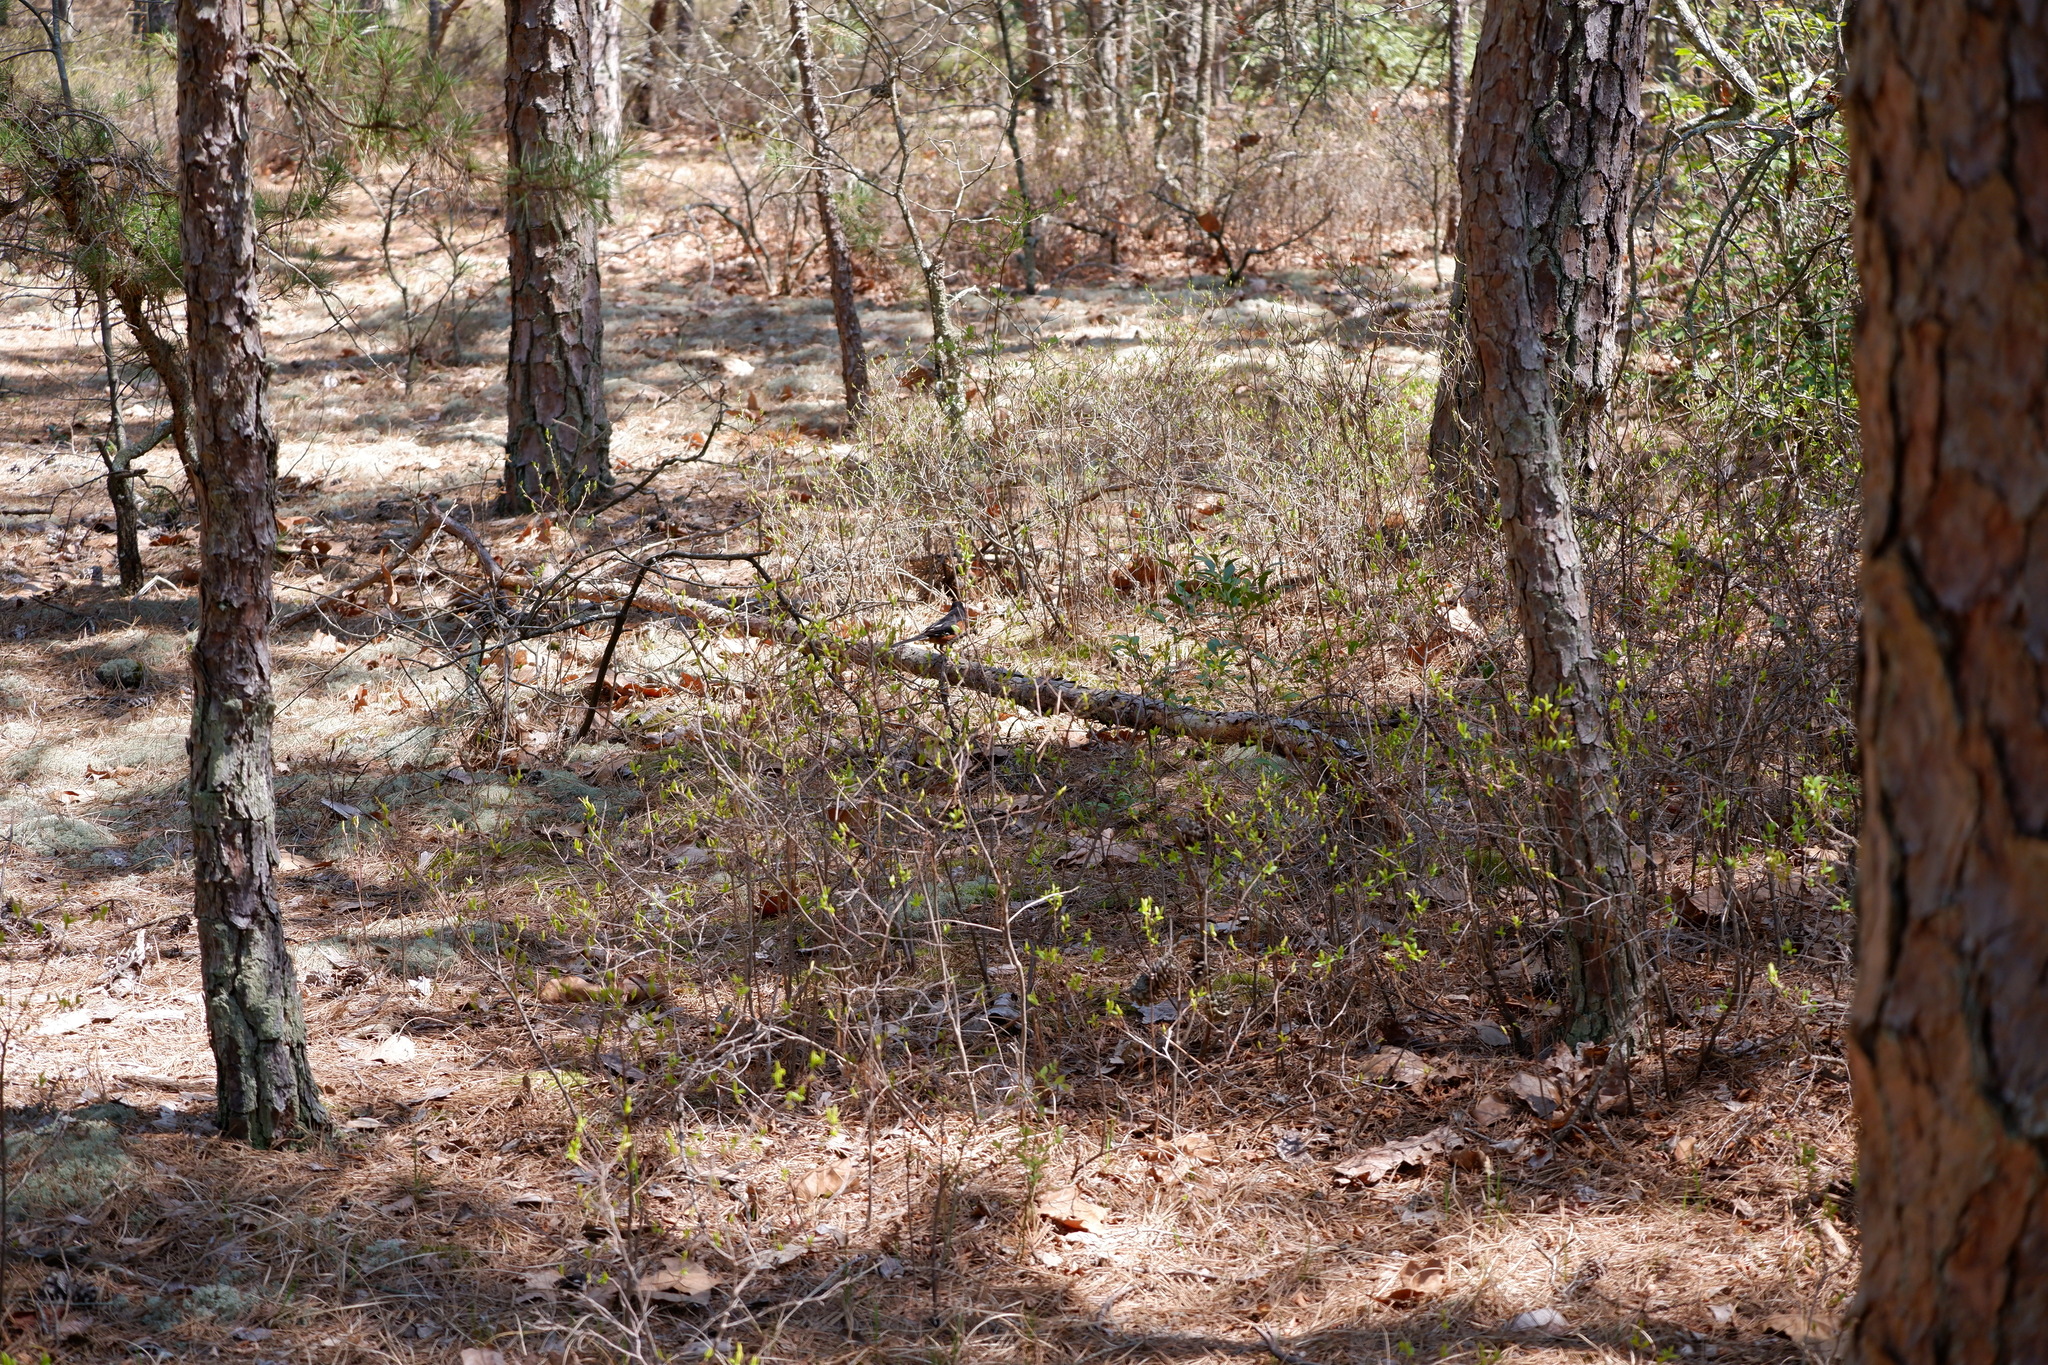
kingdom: Animalia
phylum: Chordata
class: Aves
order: Passeriformes
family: Passerellidae
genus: Pipilo
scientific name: Pipilo erythrophthalmus
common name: Eastern towhee
